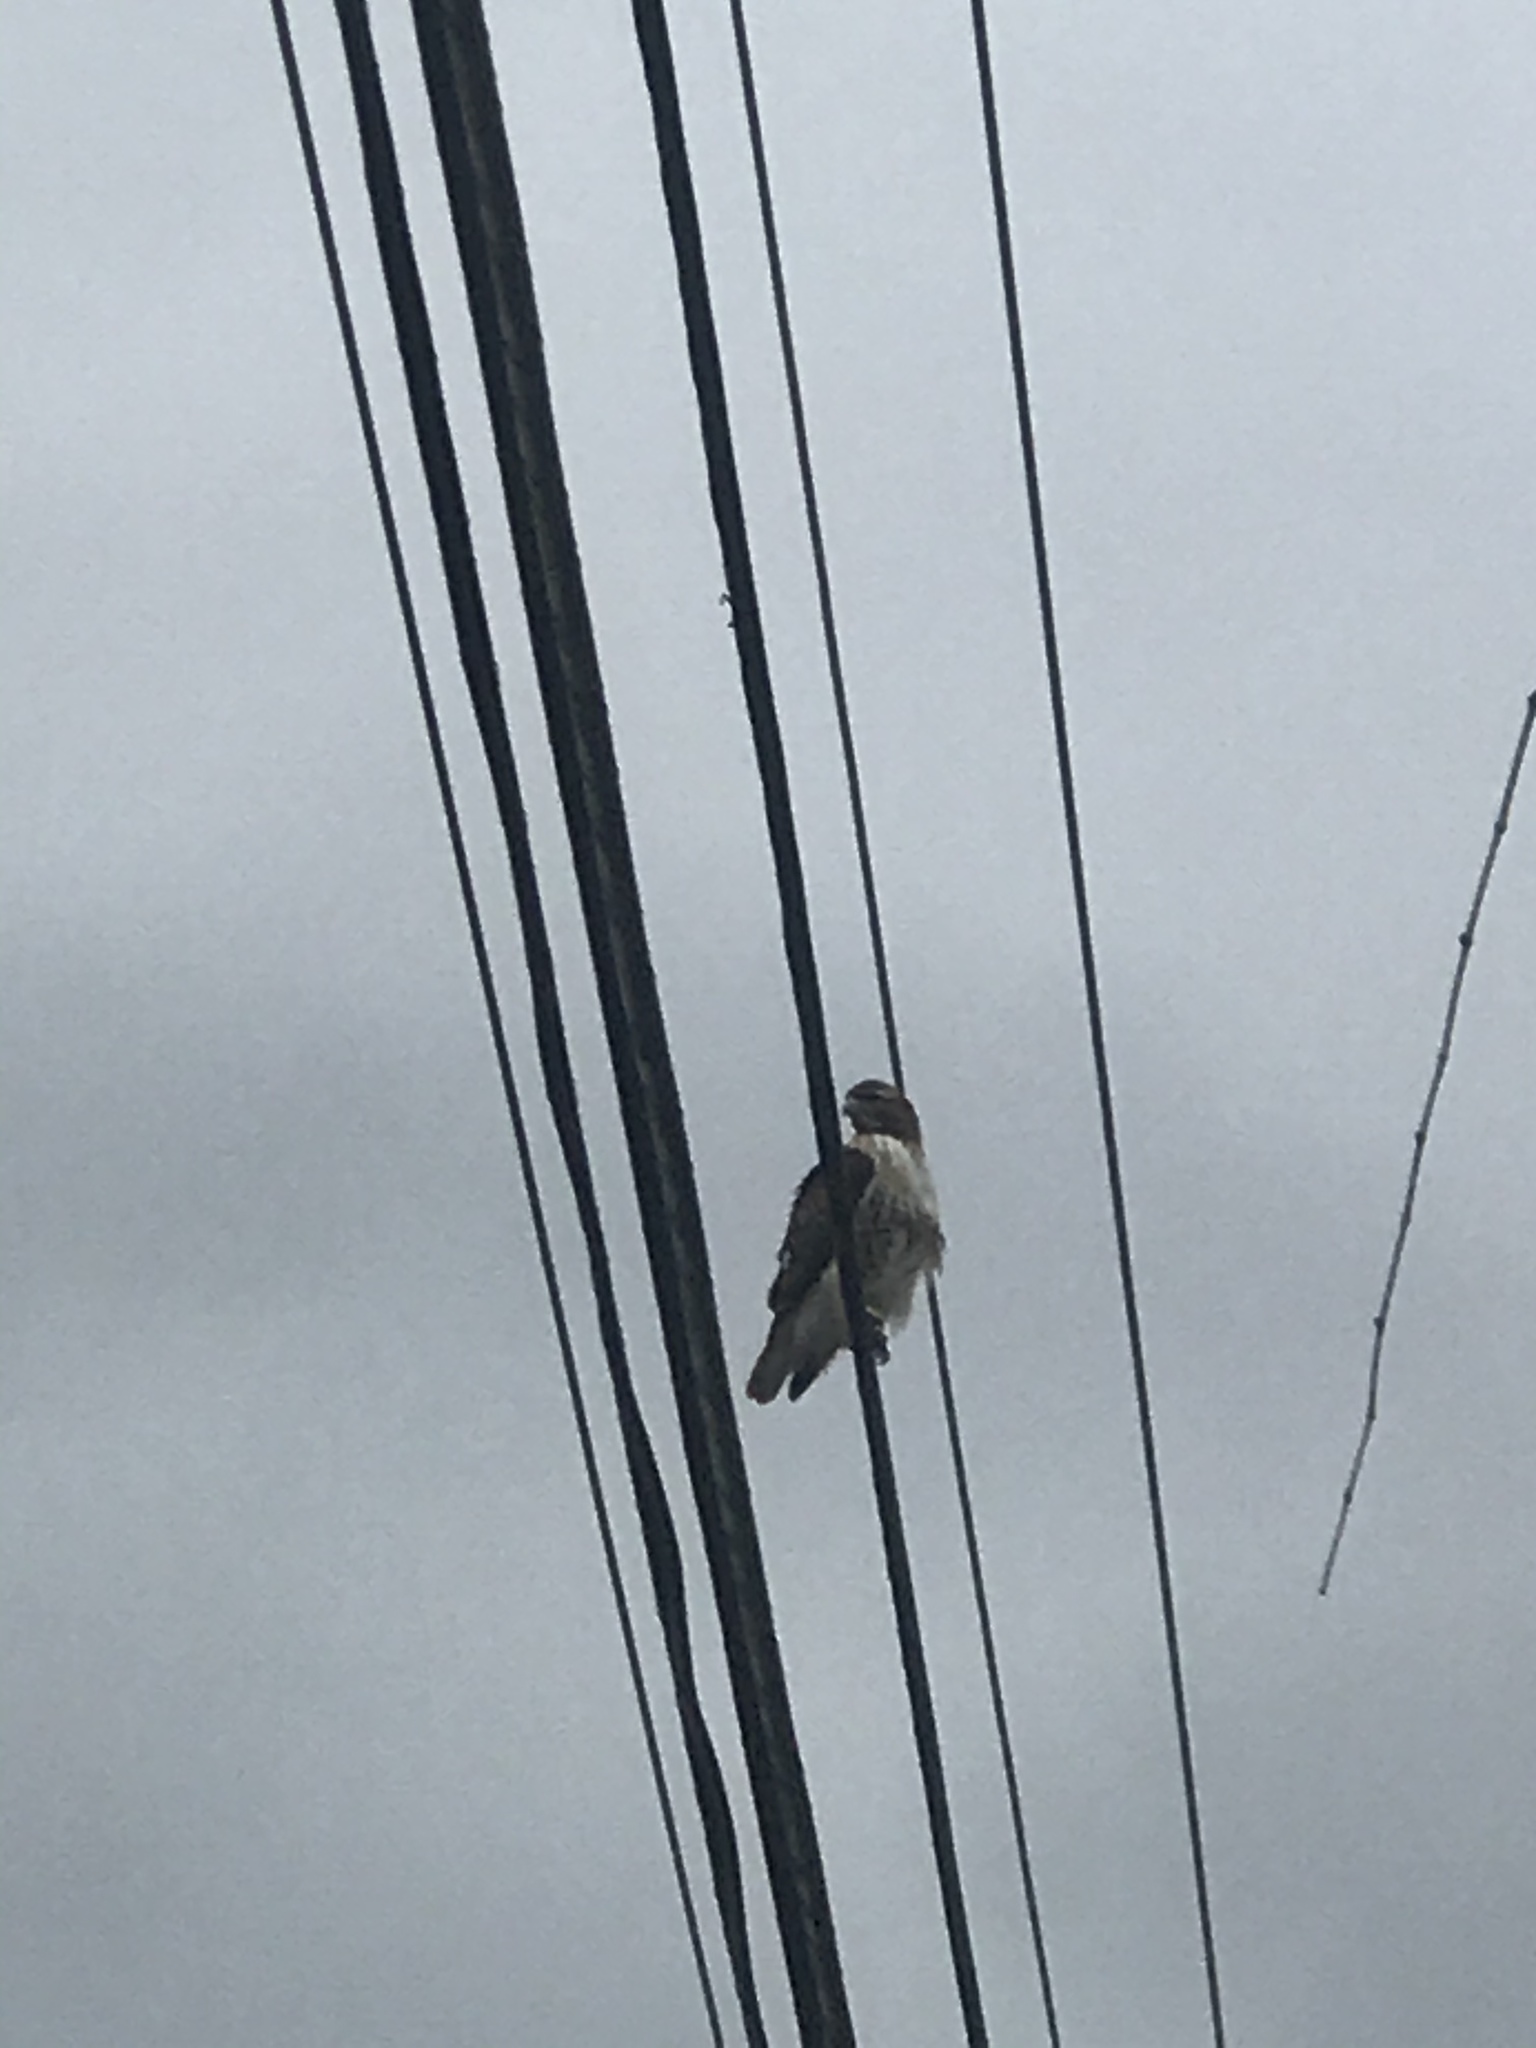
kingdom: Animalia
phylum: Chordata
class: Aves
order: Accipitriformes
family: Accipitridae
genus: Buteo
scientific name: Buteo jamaicensis
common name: Red-tailed hawk
